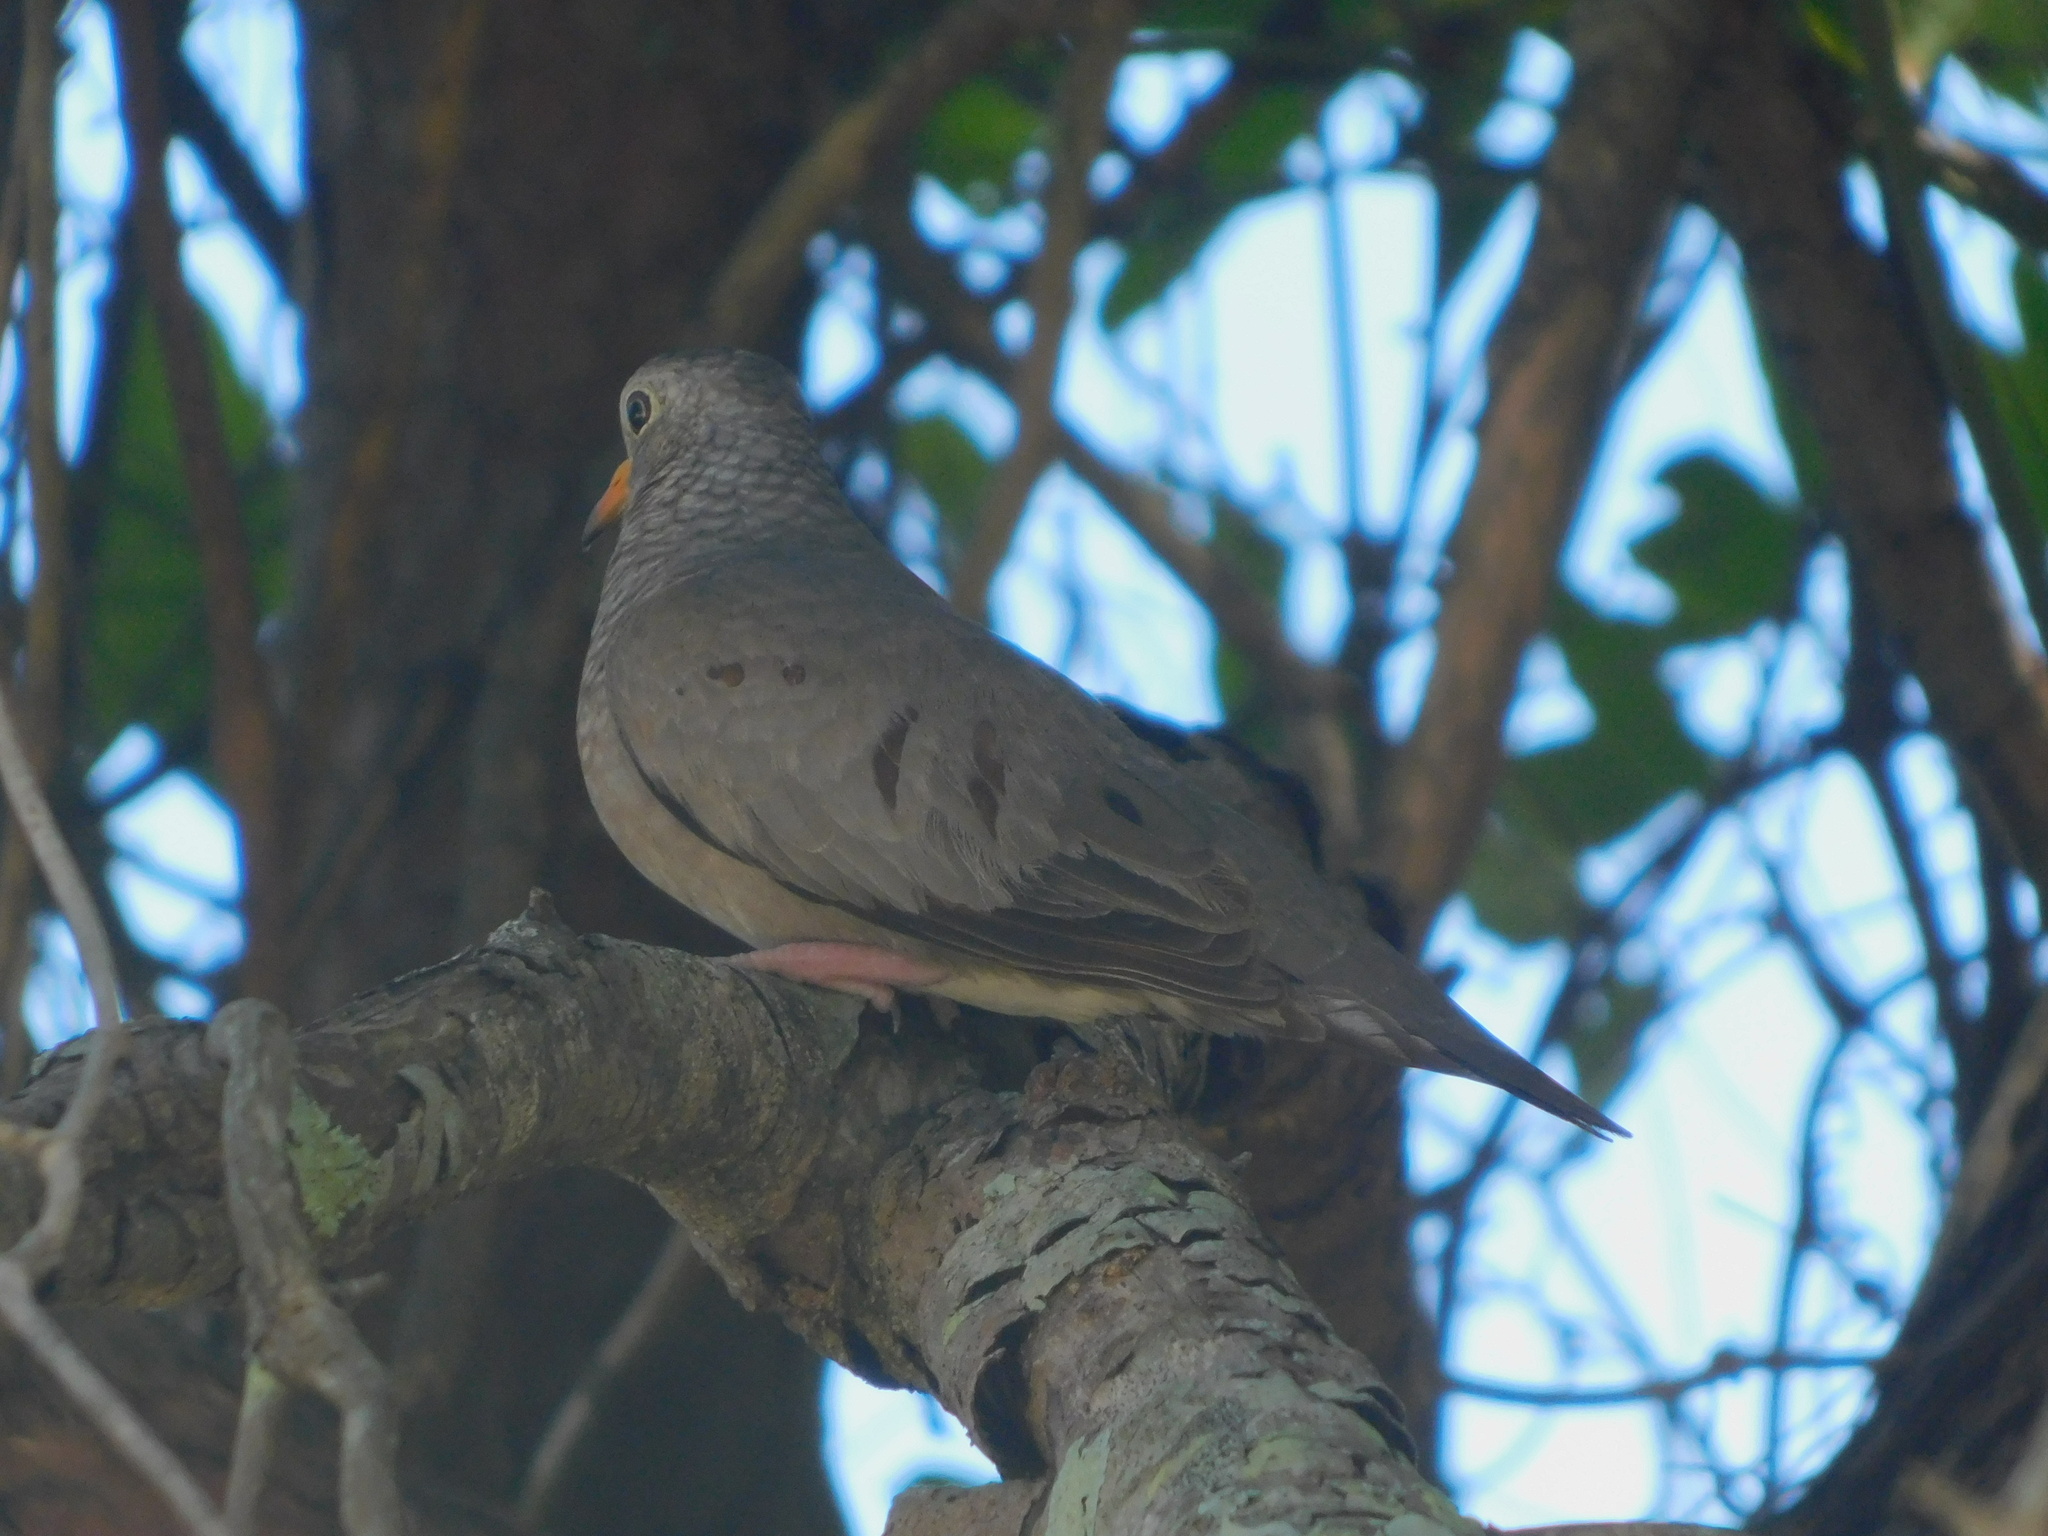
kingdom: Animalia
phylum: Chordata
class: Aves
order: Columbiformes
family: Columbidae
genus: Columbina
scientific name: Columbina passerina
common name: Common ground-dove
